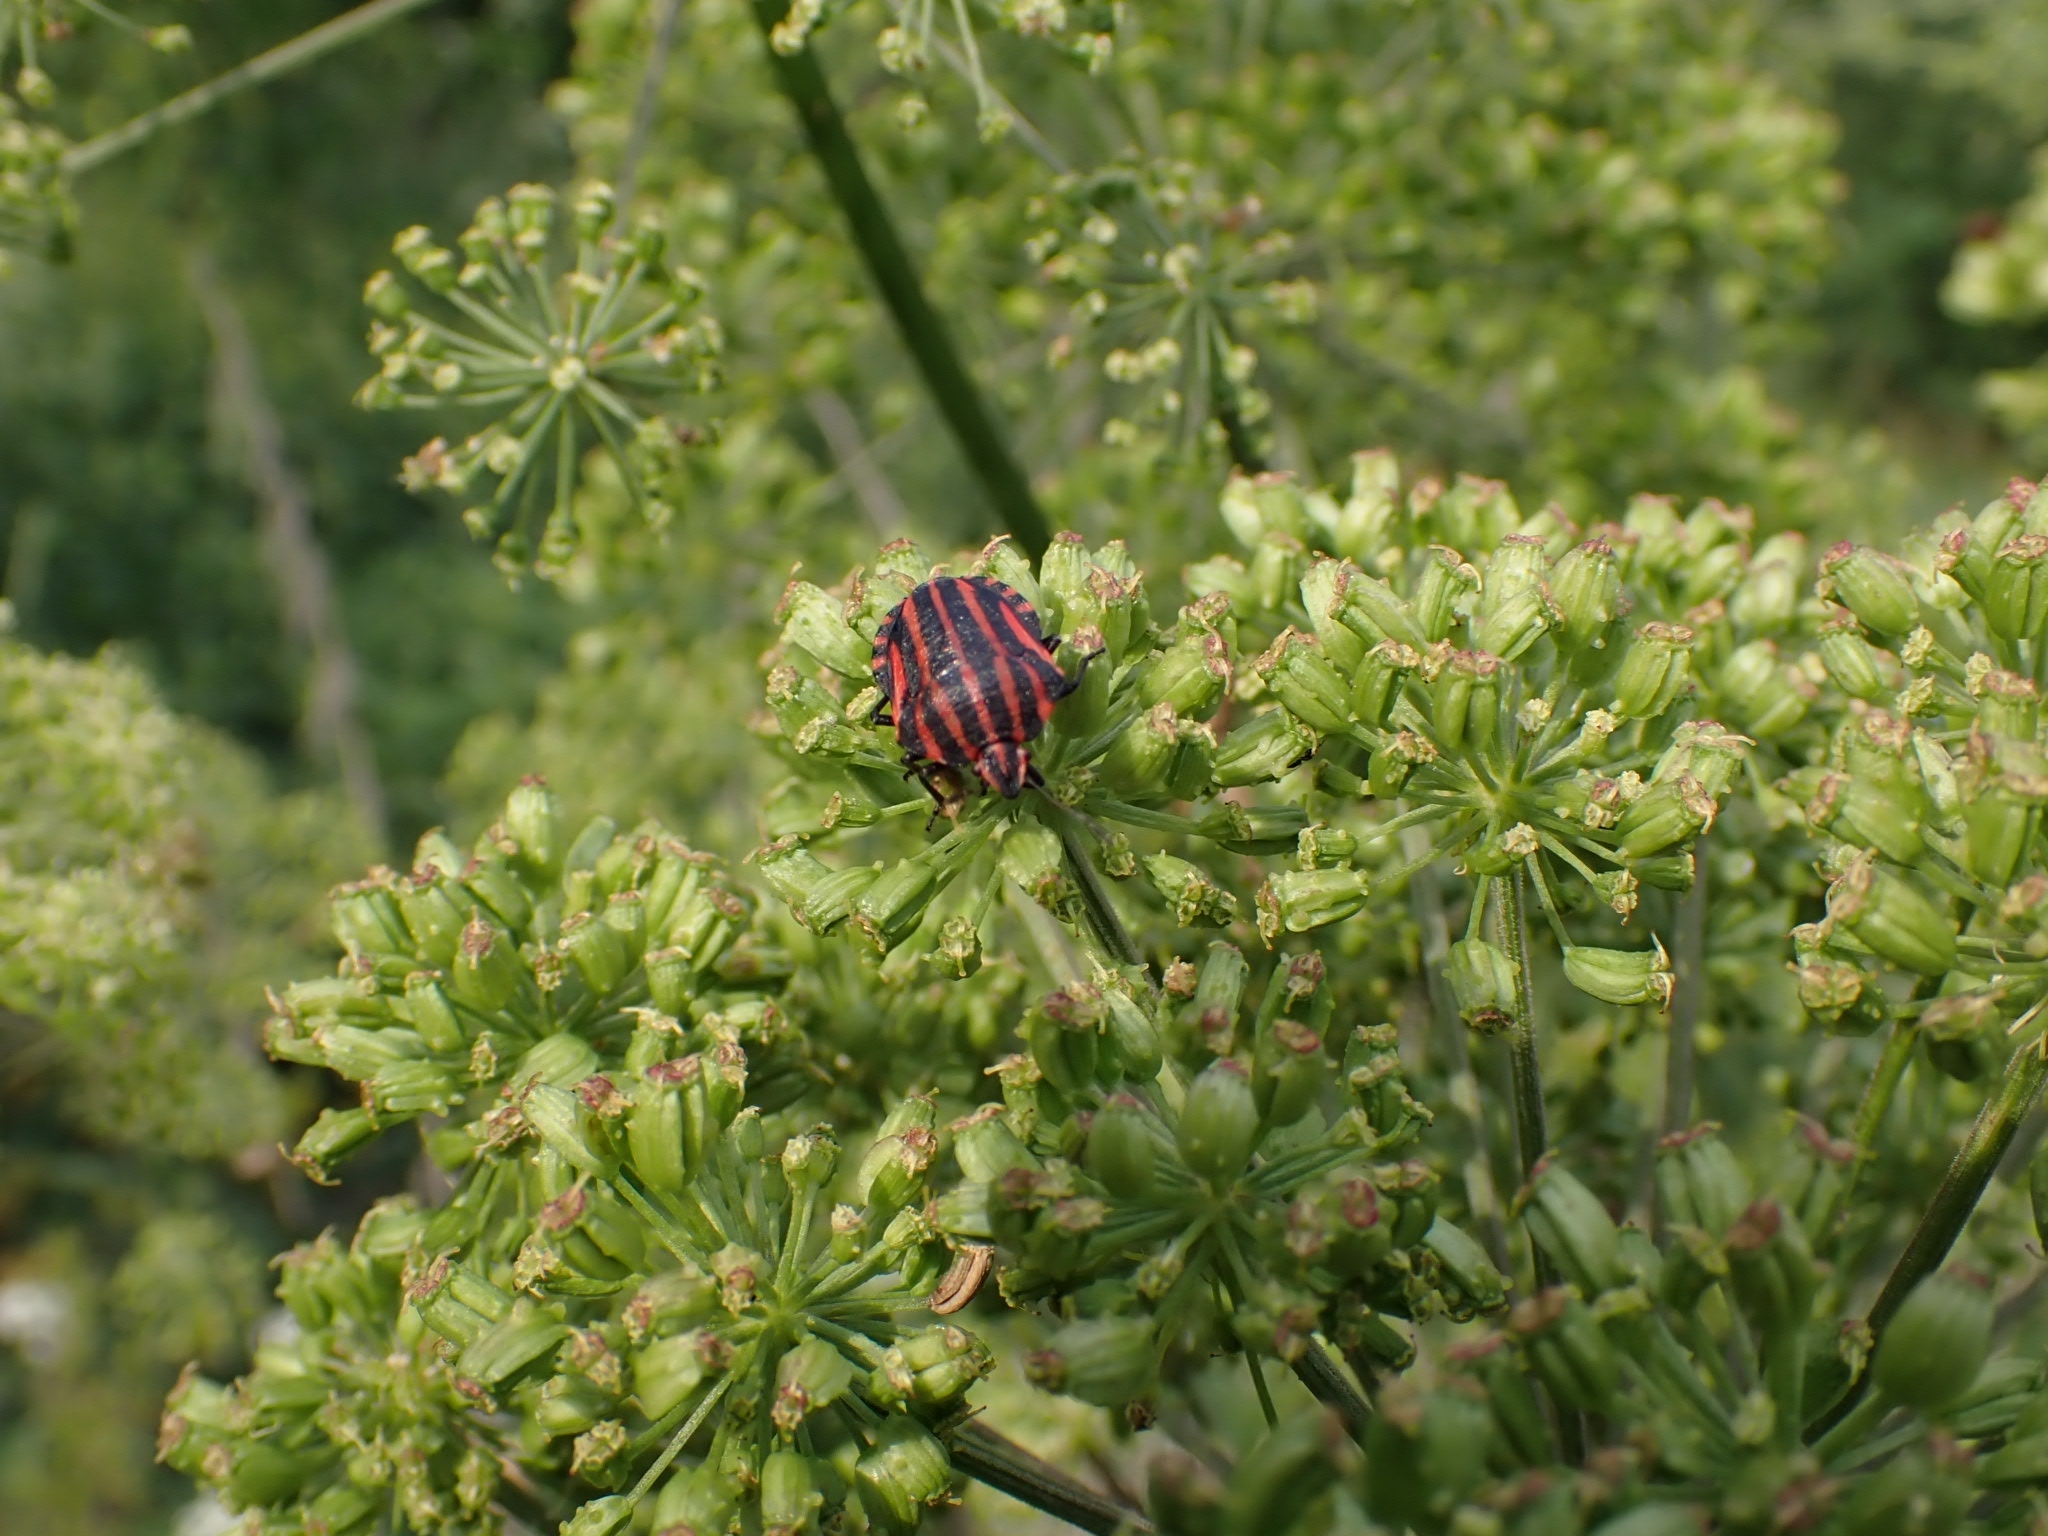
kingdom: Animalia
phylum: Arthropoda
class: Insecta
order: Hemiptera
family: Pentatomidae
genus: Graphosoma
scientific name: Graphosoma italicum
